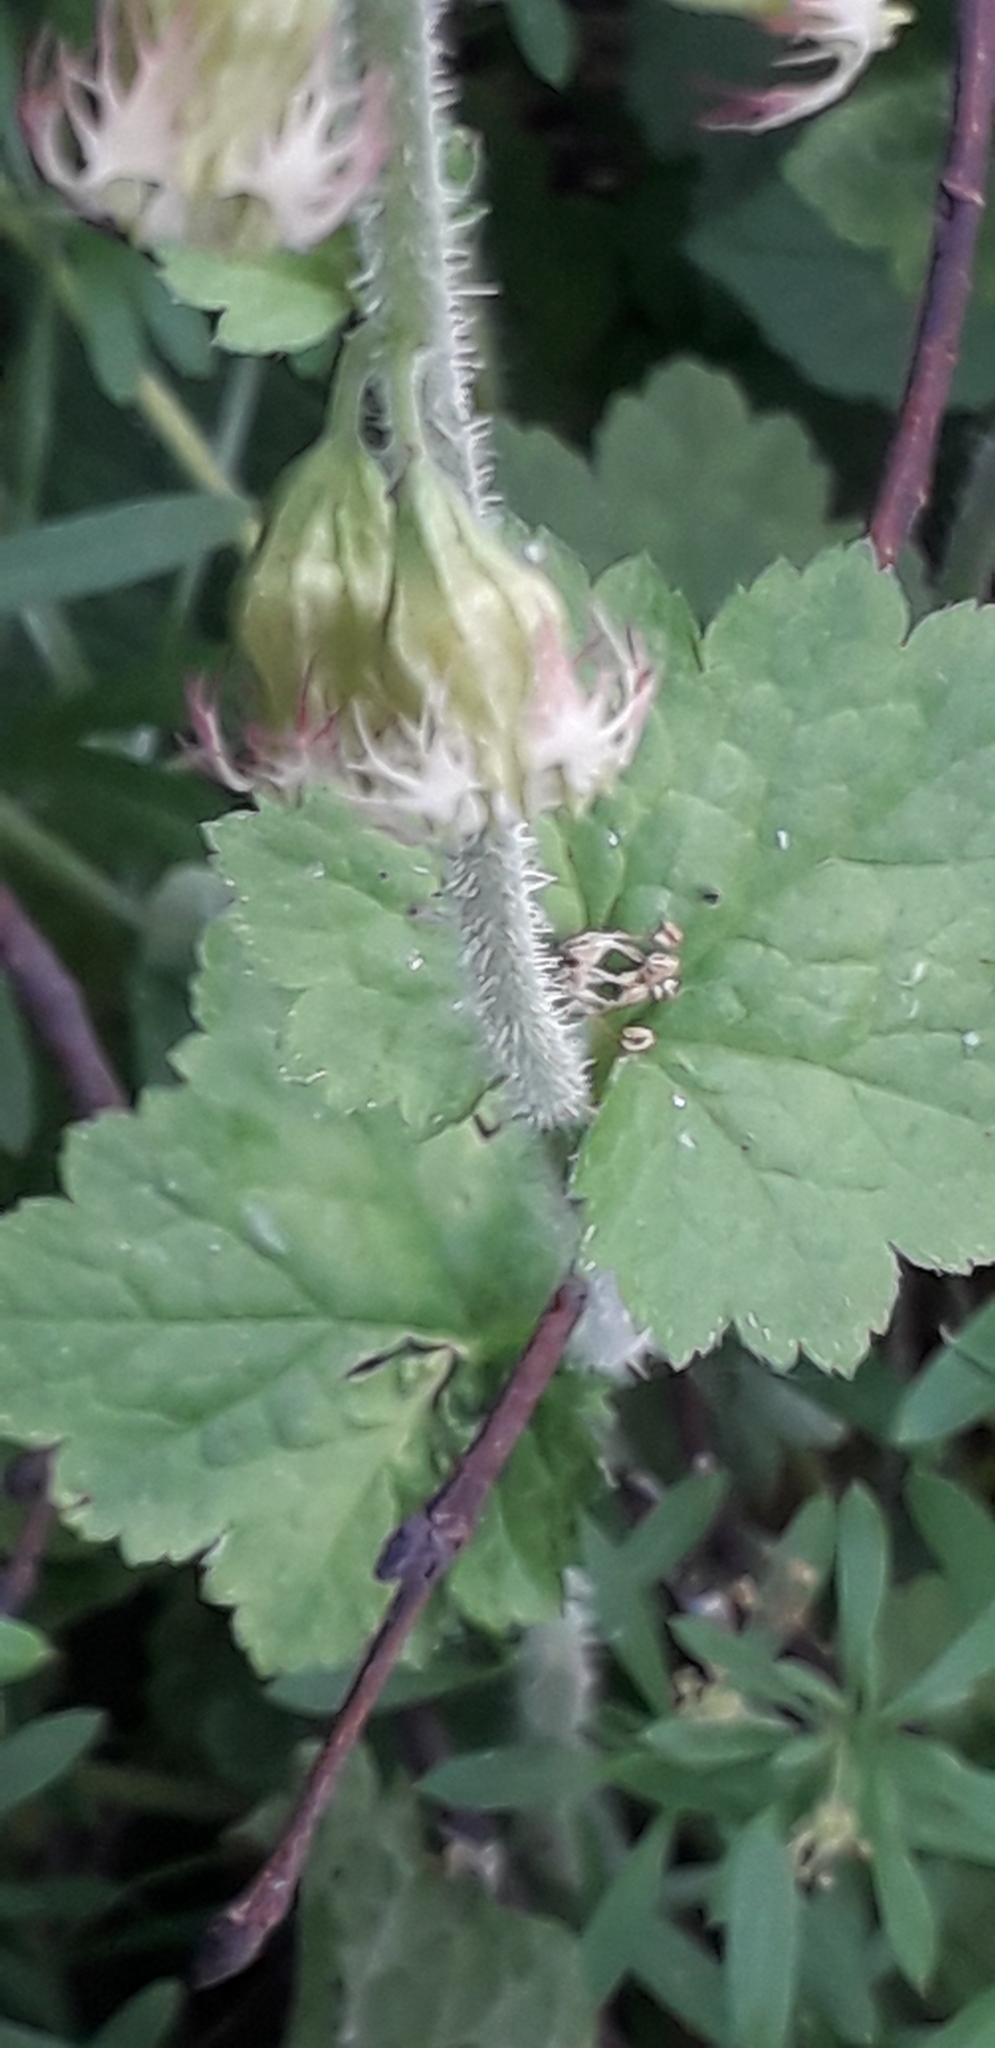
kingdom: Plantae
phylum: Tracheophyta
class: Magnoliopsida
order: Saxifragales
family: Saxifragaceae
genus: Tellima
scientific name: Tellima grandiflora
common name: Fringecups
